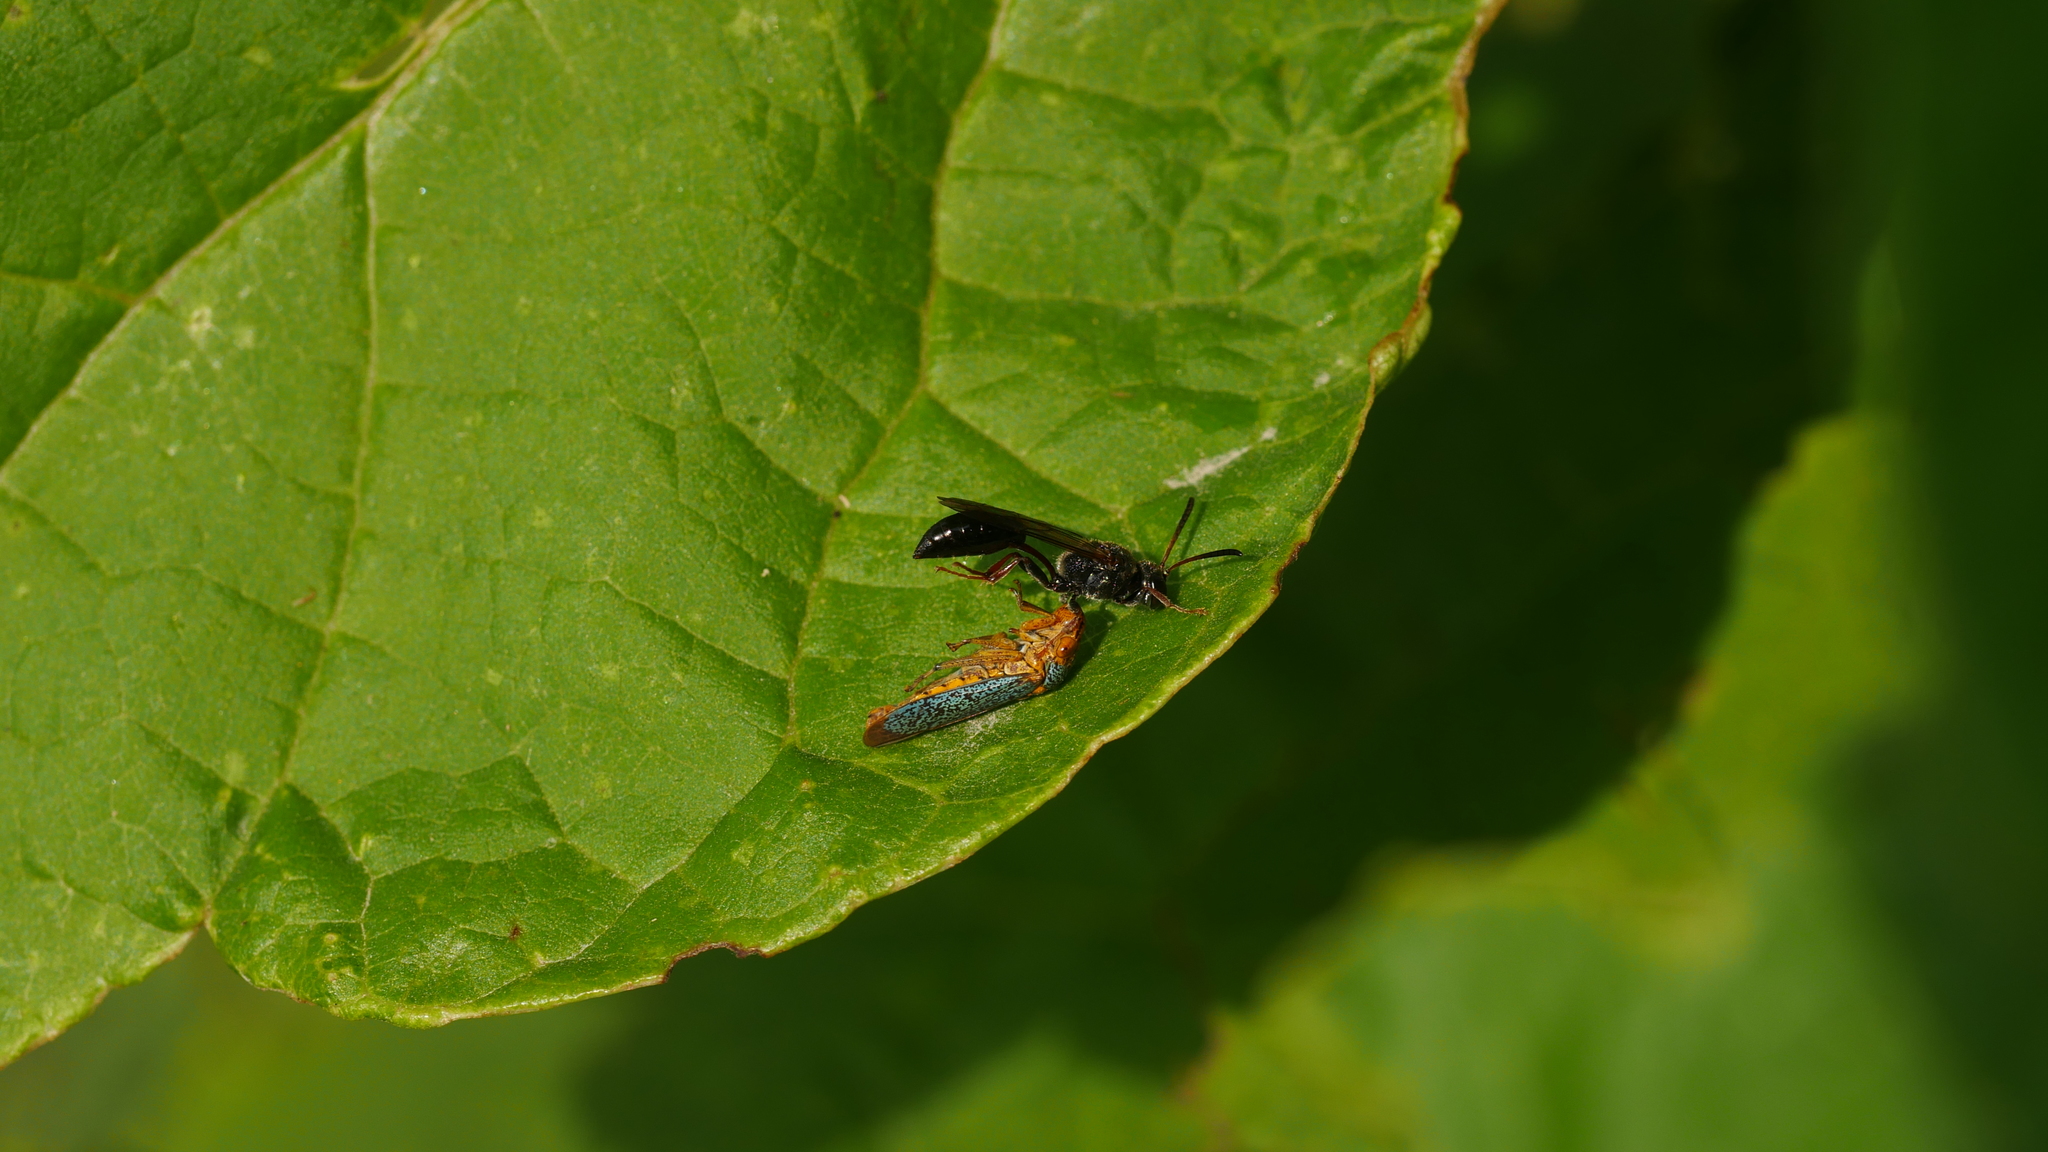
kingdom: Animalia
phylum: Arthropoda
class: Insecta
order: Hymenoptera
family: Crabronidae
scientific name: Crabronidae
